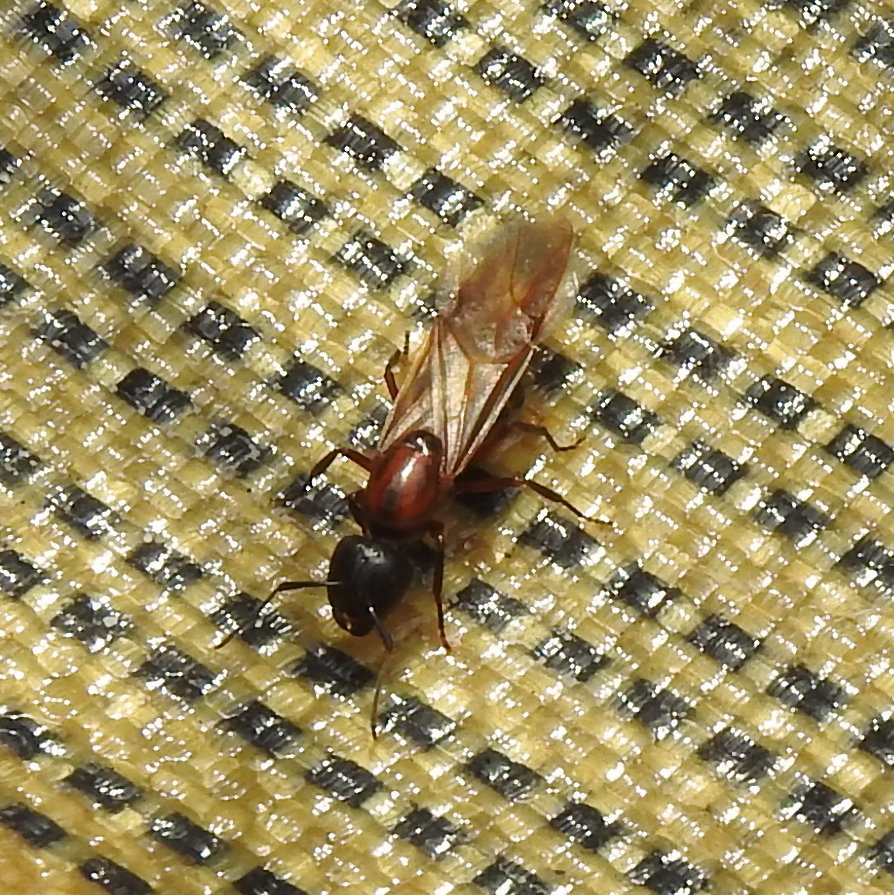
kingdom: Animalia
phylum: Arthropoda
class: Insecta
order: Hymenoptera
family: Formicidae
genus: Camponotus
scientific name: Camponotus novaeboracensis
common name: New york carpenter ant
